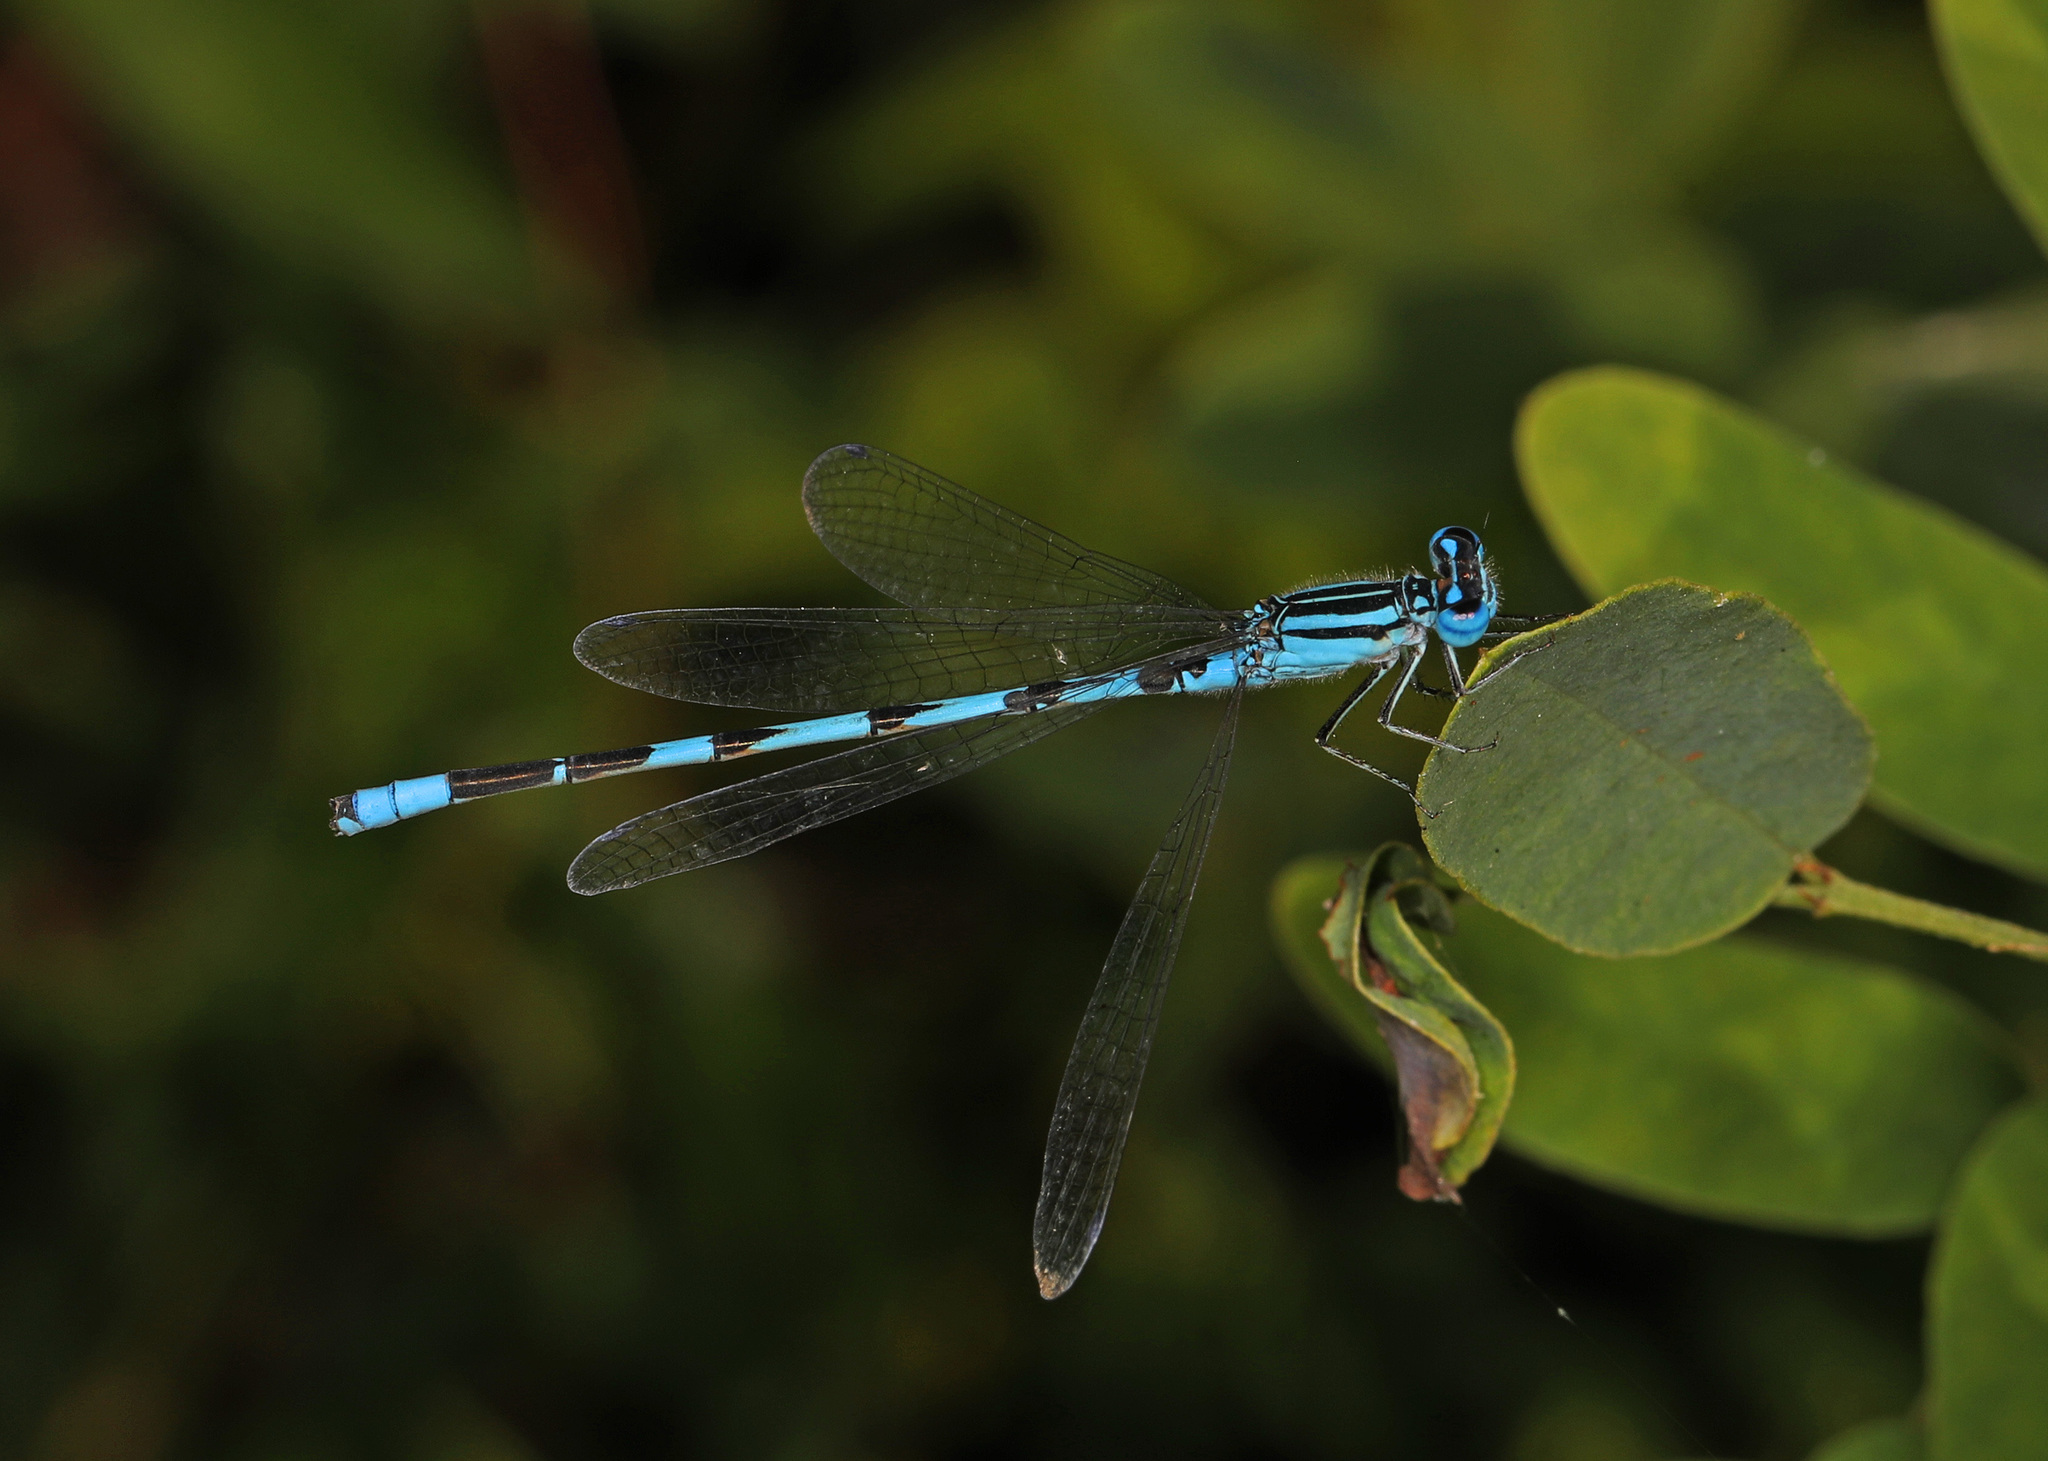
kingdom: Animalia
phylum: Arthropoda
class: Insecta
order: Odonata
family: Coenagrionidae
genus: Enallagma
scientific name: Enallagma durum
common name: Big bluet
